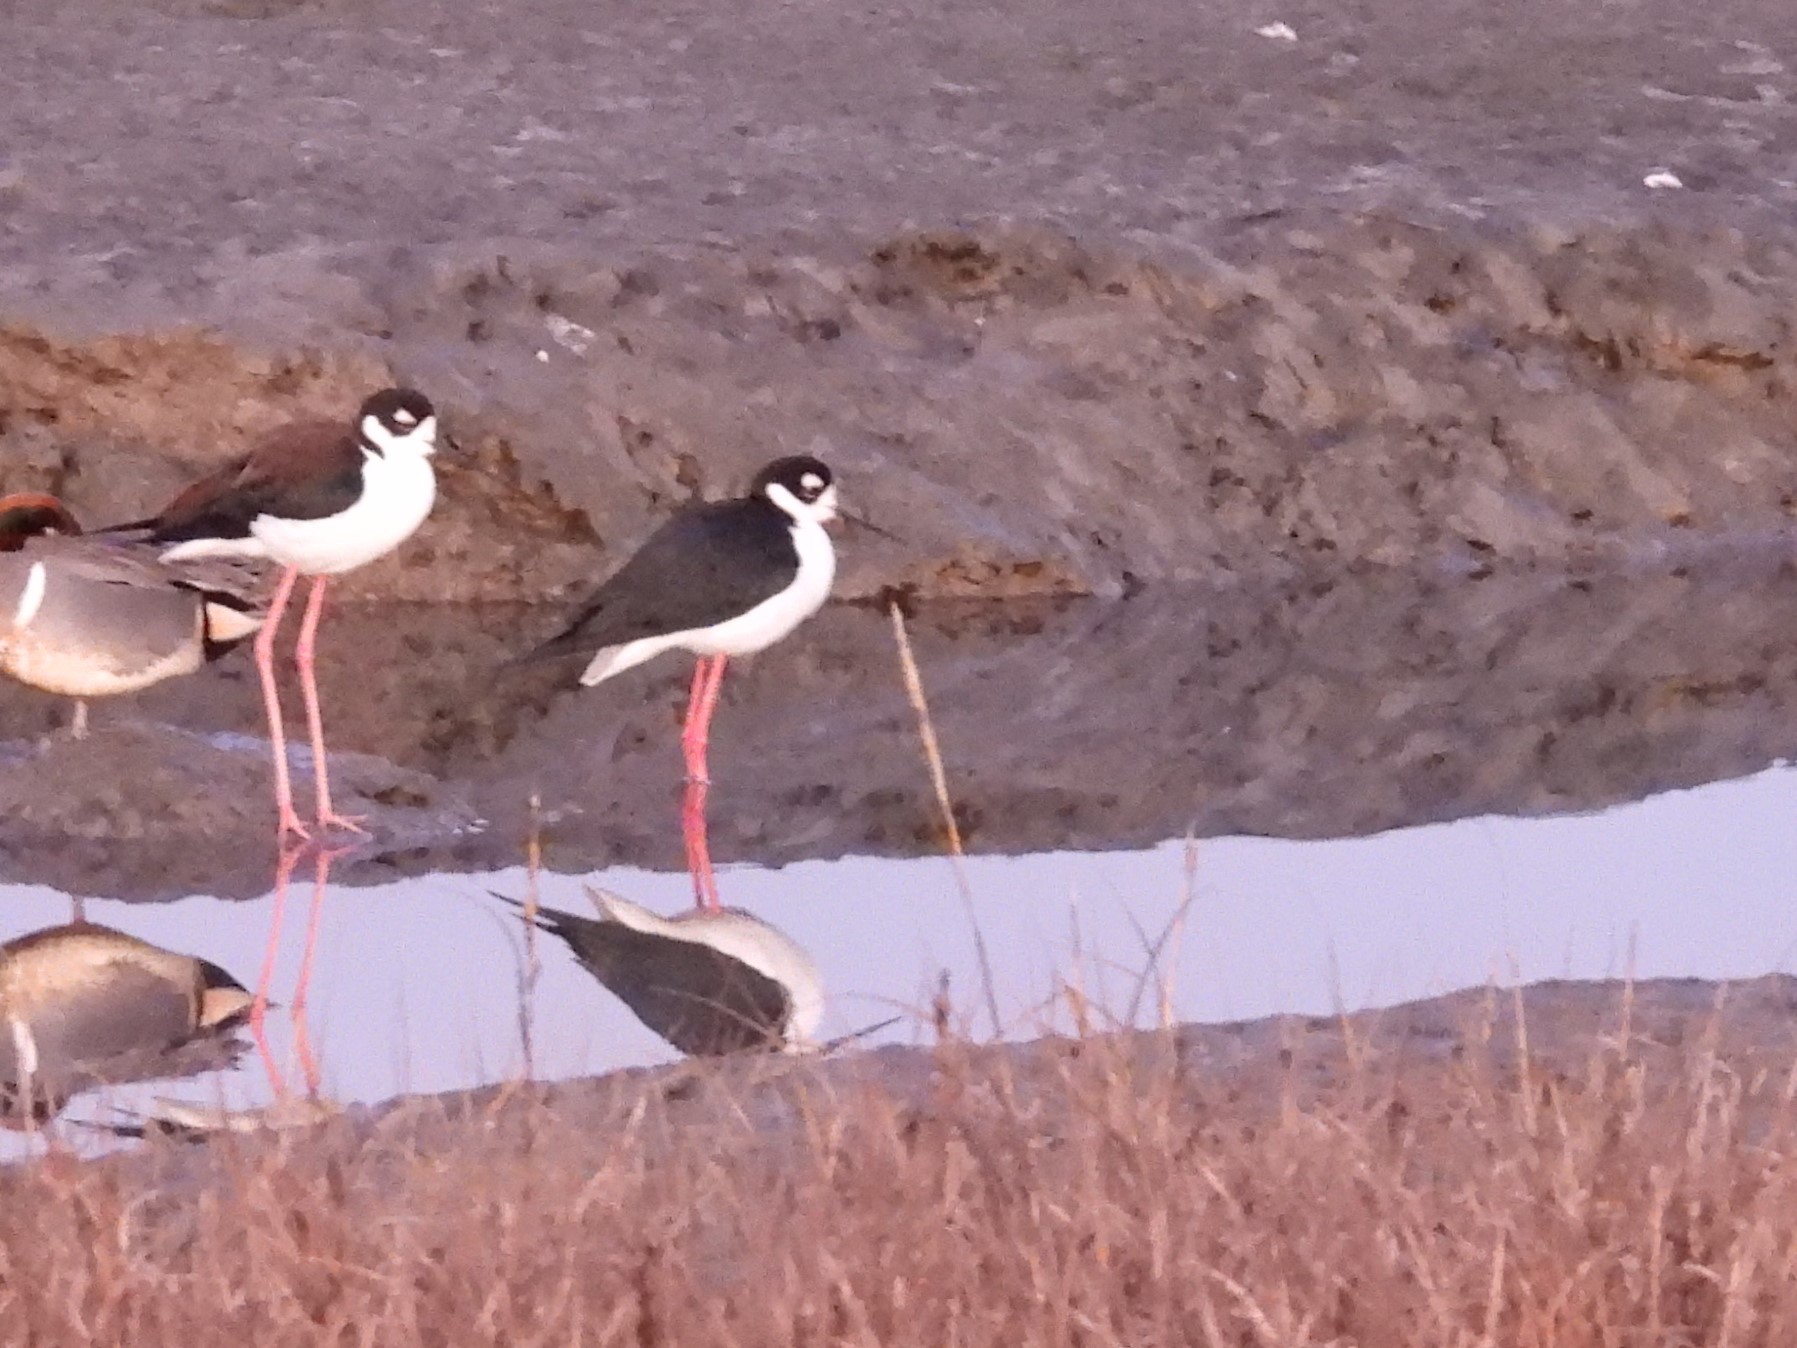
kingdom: Animalia
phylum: Chordata
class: Aves
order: Charadriiformes
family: Recurvirostridae
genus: Himantopus
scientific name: Himantopus mexicanus
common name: Black-necked stilt
